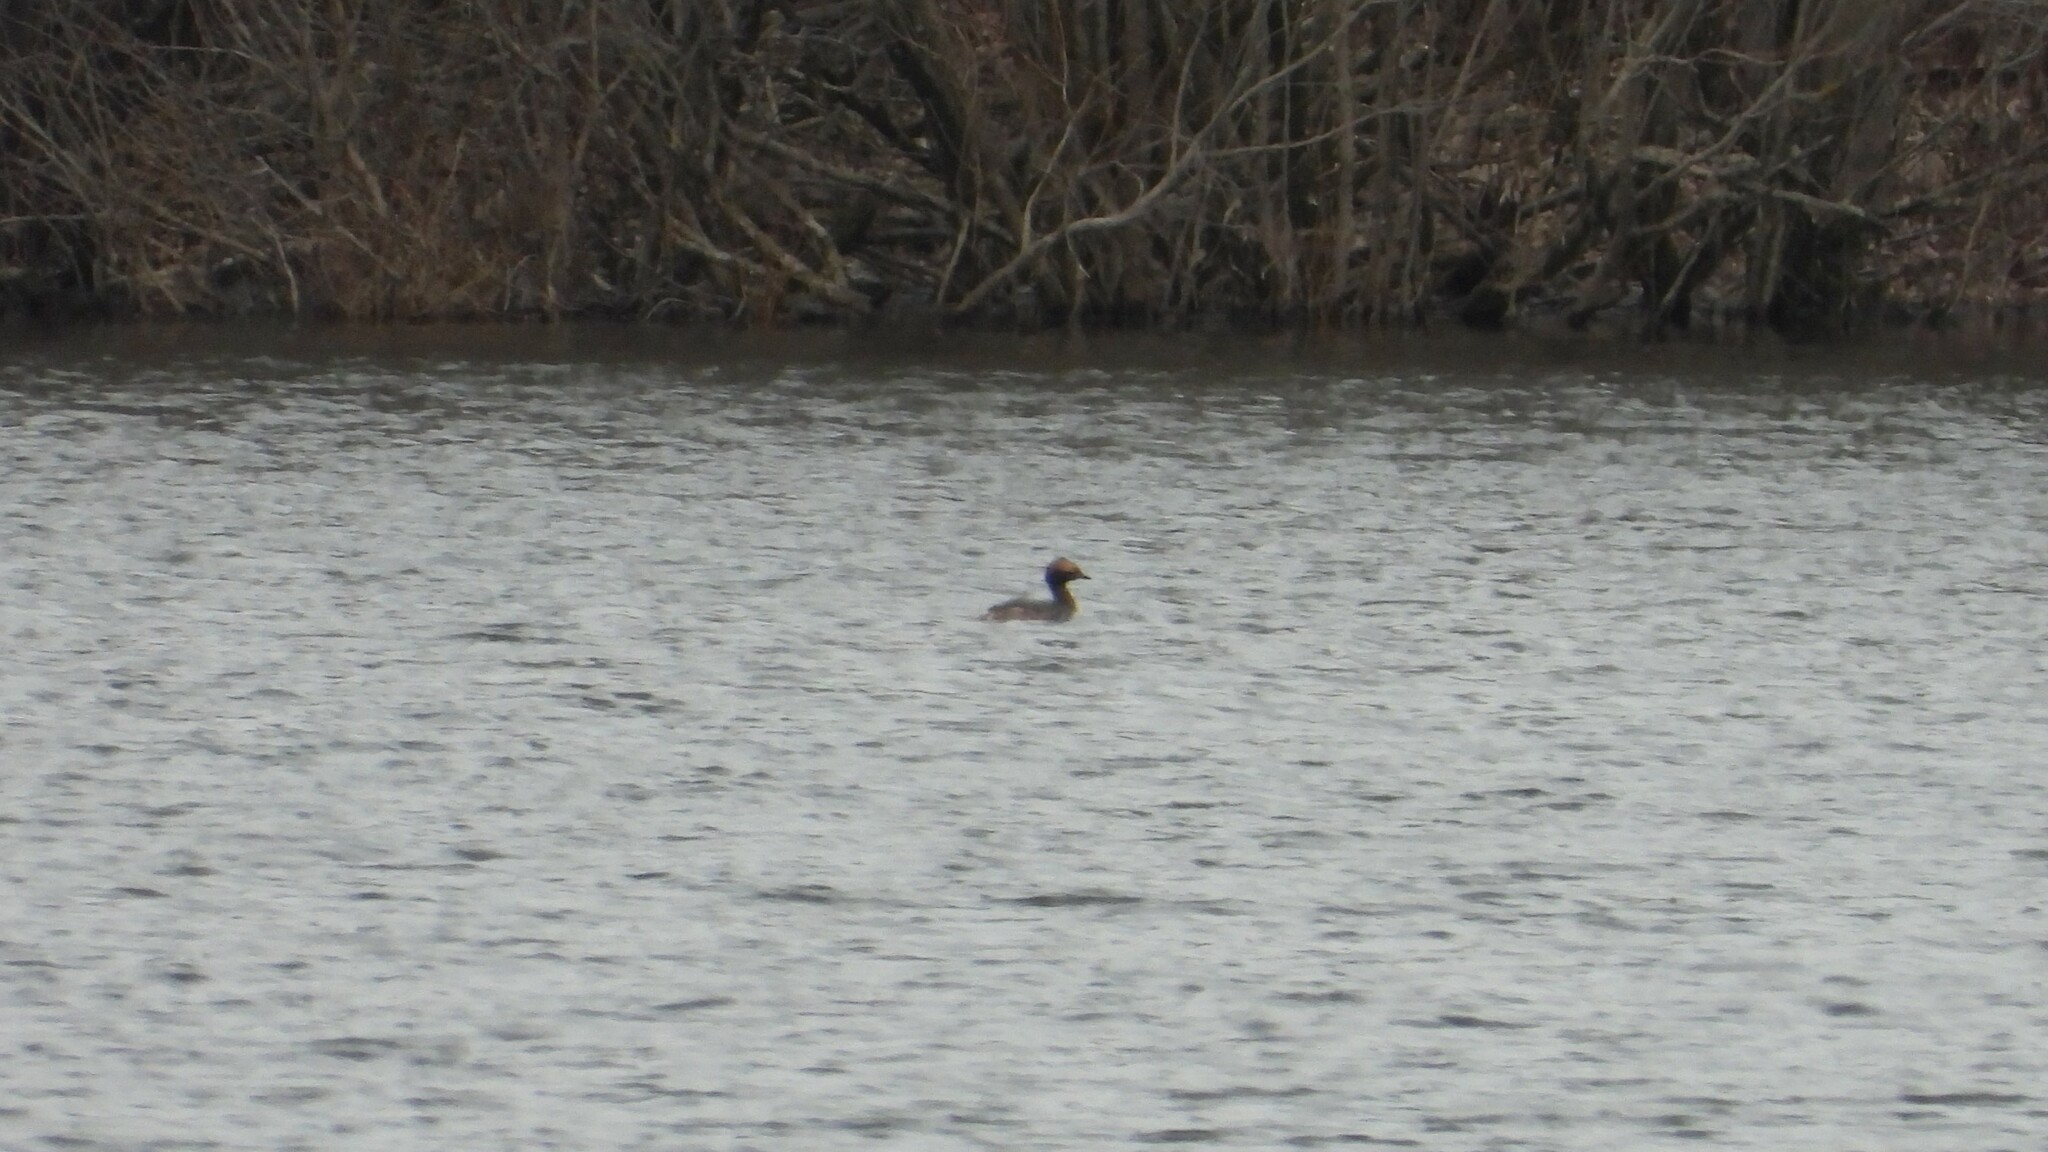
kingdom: Animalia
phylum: Chordata
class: Aves
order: Podicipediformes
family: Podicipedidae
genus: Podiceps
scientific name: Podiceps auritus
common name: Horned grebe
